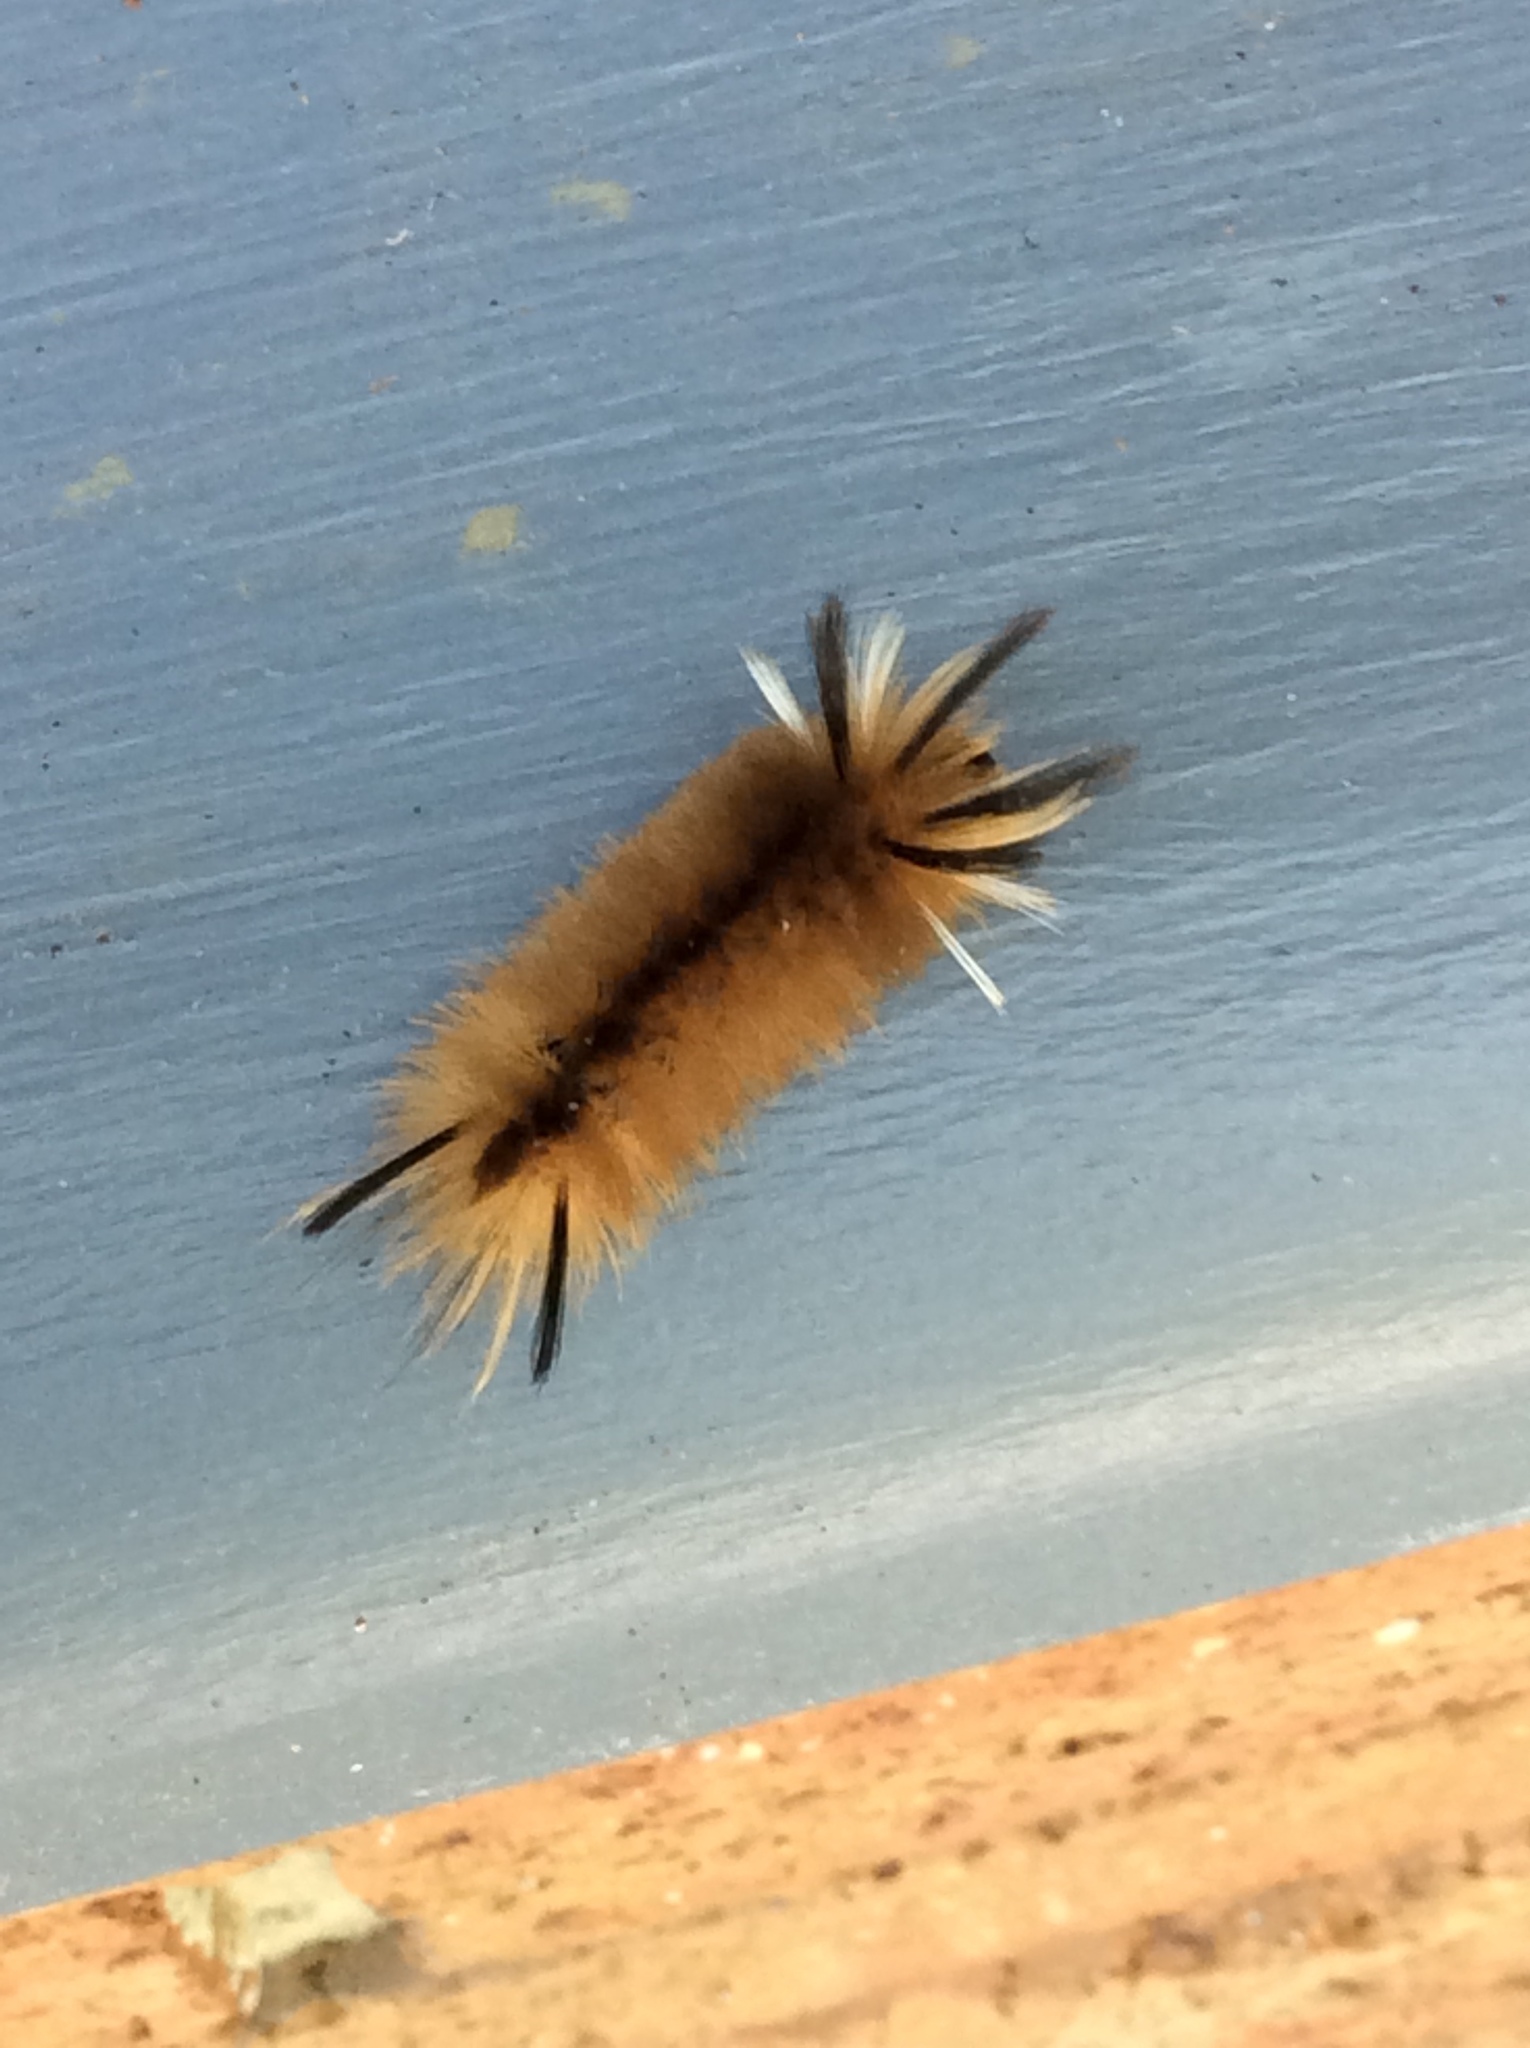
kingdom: Animalia
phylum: Arthropoda
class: Insecta
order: Lepidoptera
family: Erebidae
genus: Halysidota
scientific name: Halysidota tessellaris
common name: Banded tussock moth
